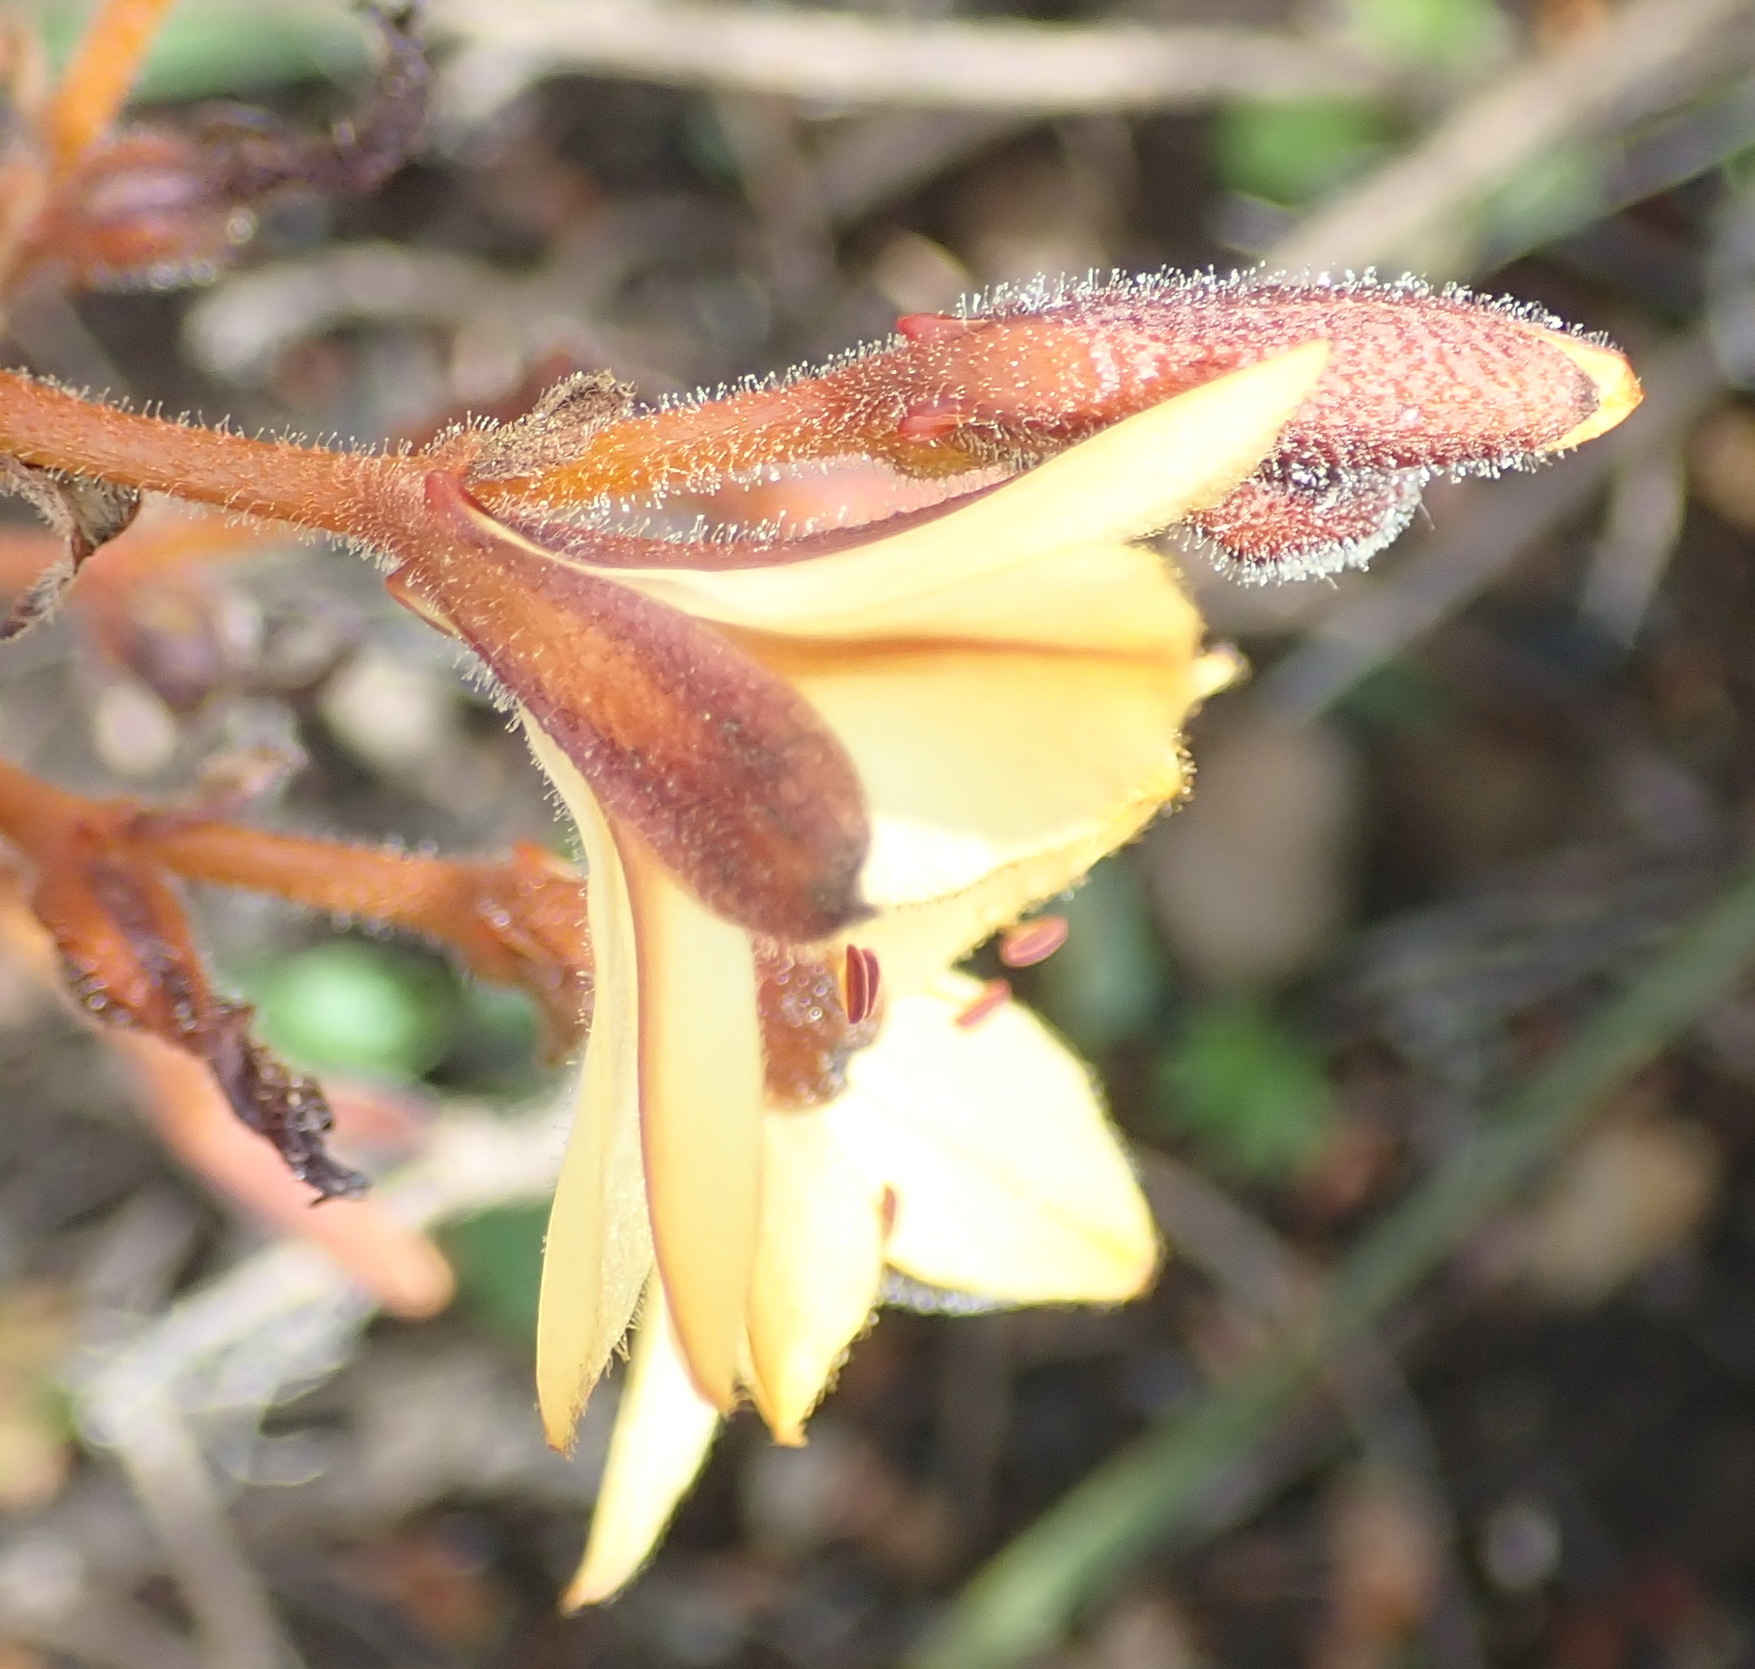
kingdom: Plantae
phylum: Tracheophyta
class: Liliopsida
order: Commelinales
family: Haemodoraceae
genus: Wachendorfia
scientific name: Wachendorfia paniculata
